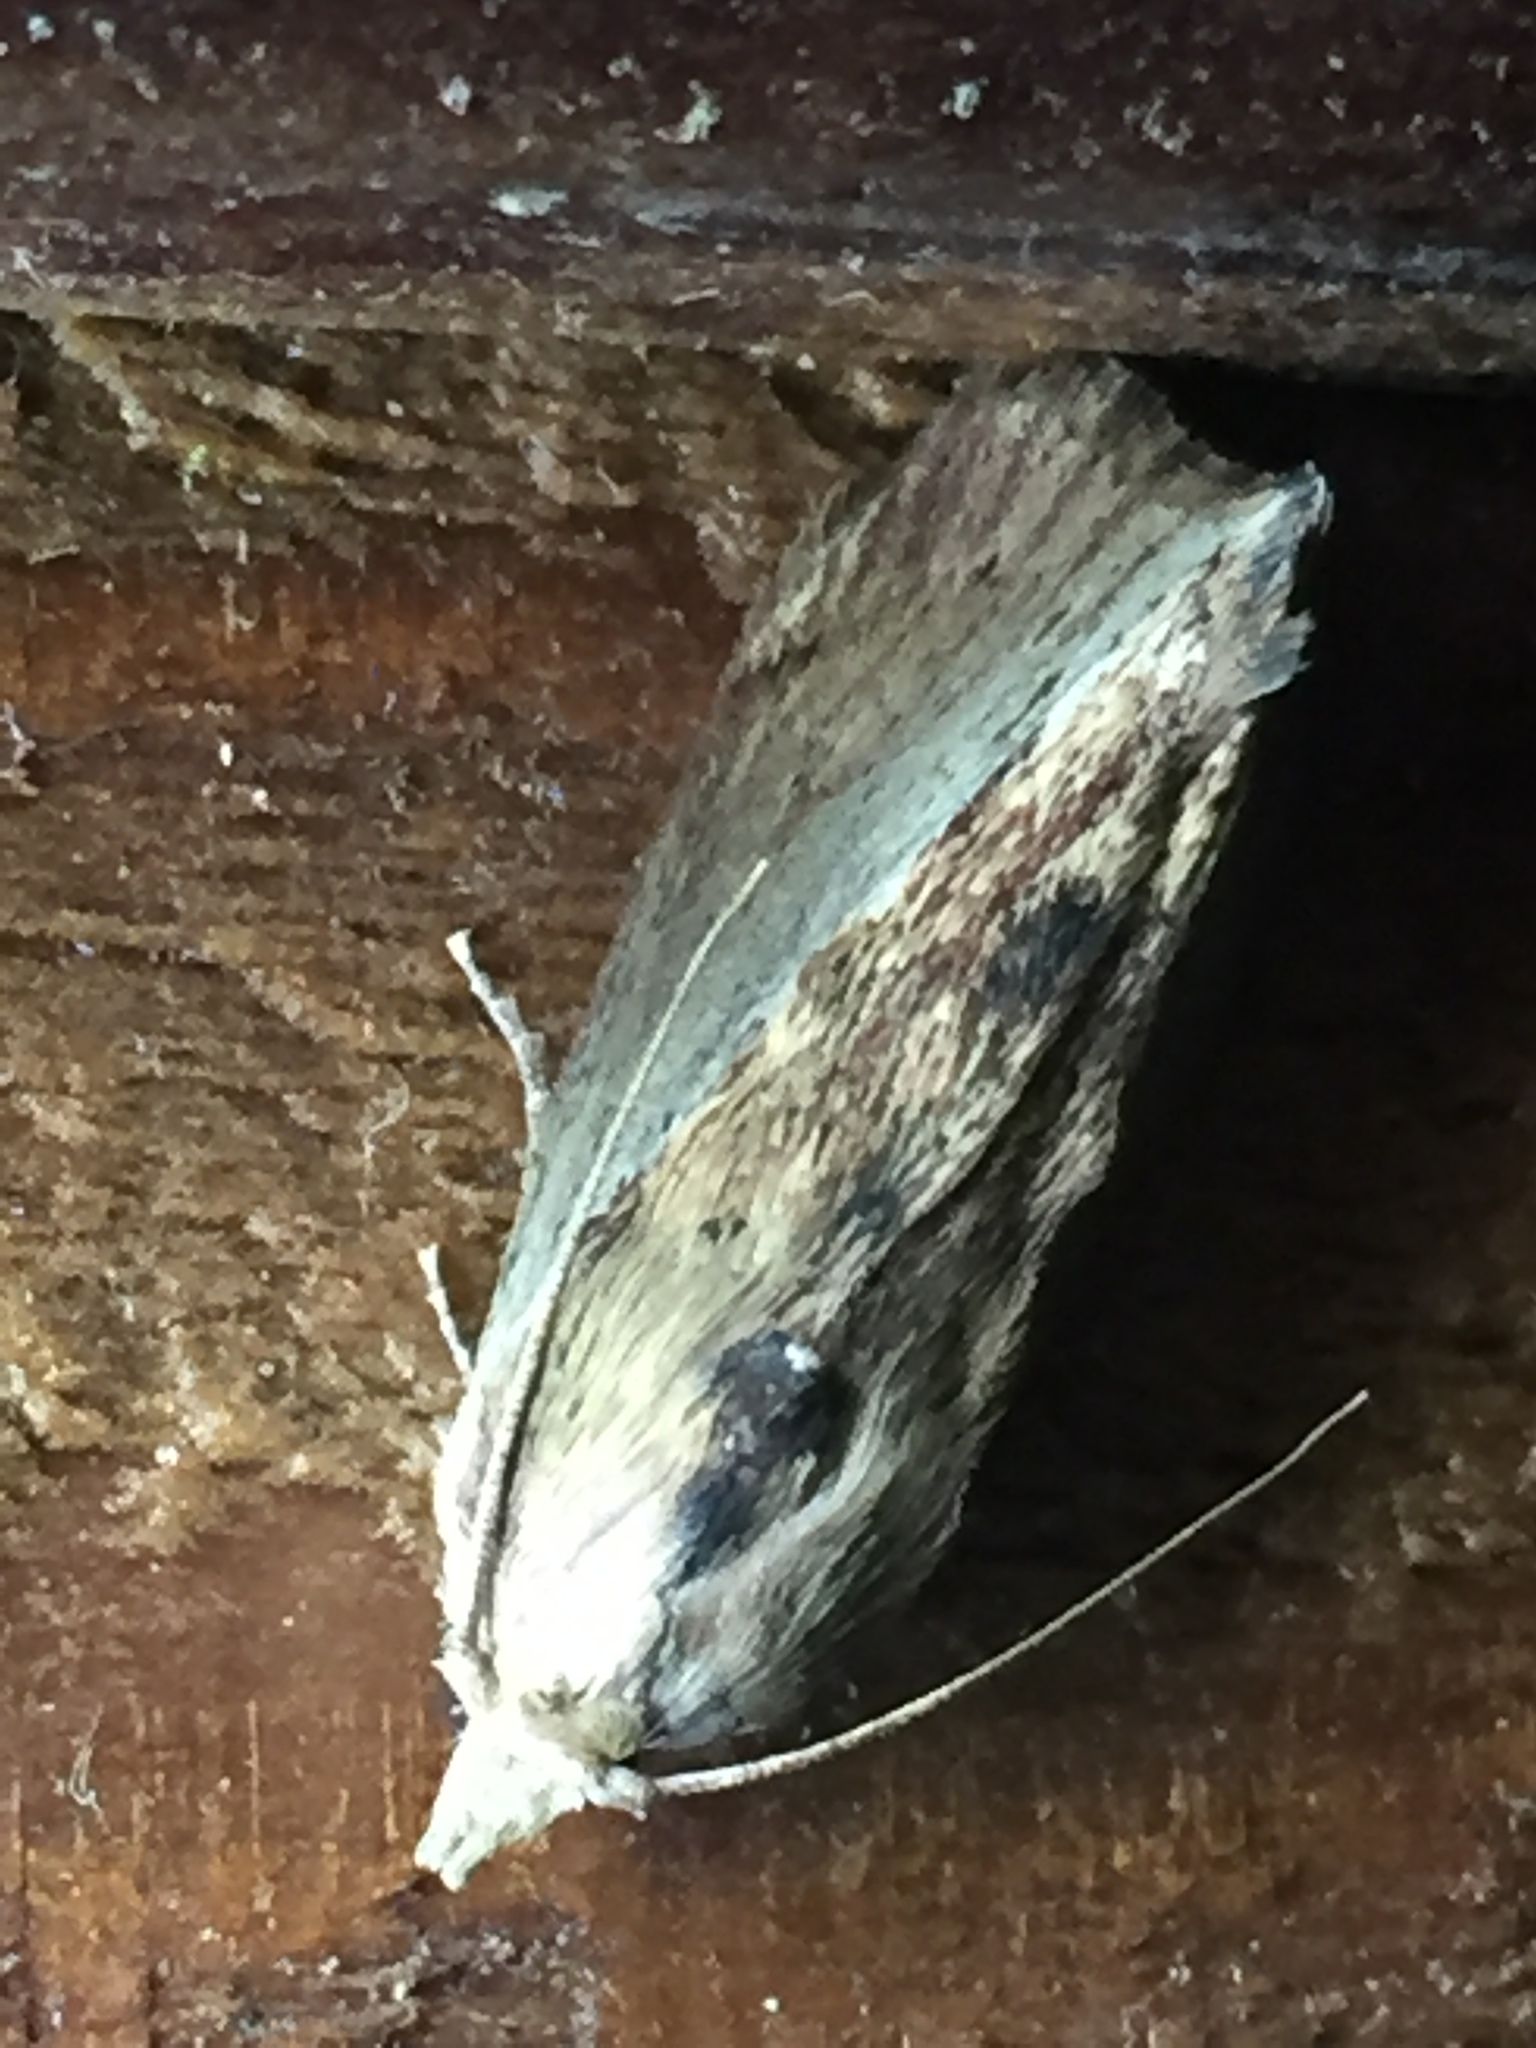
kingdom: Animalia
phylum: Arthropoda
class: Insecta
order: Lepidoptera
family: Pyralidae
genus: Galleria
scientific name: Galleria mellonella
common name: Greater wax moth
